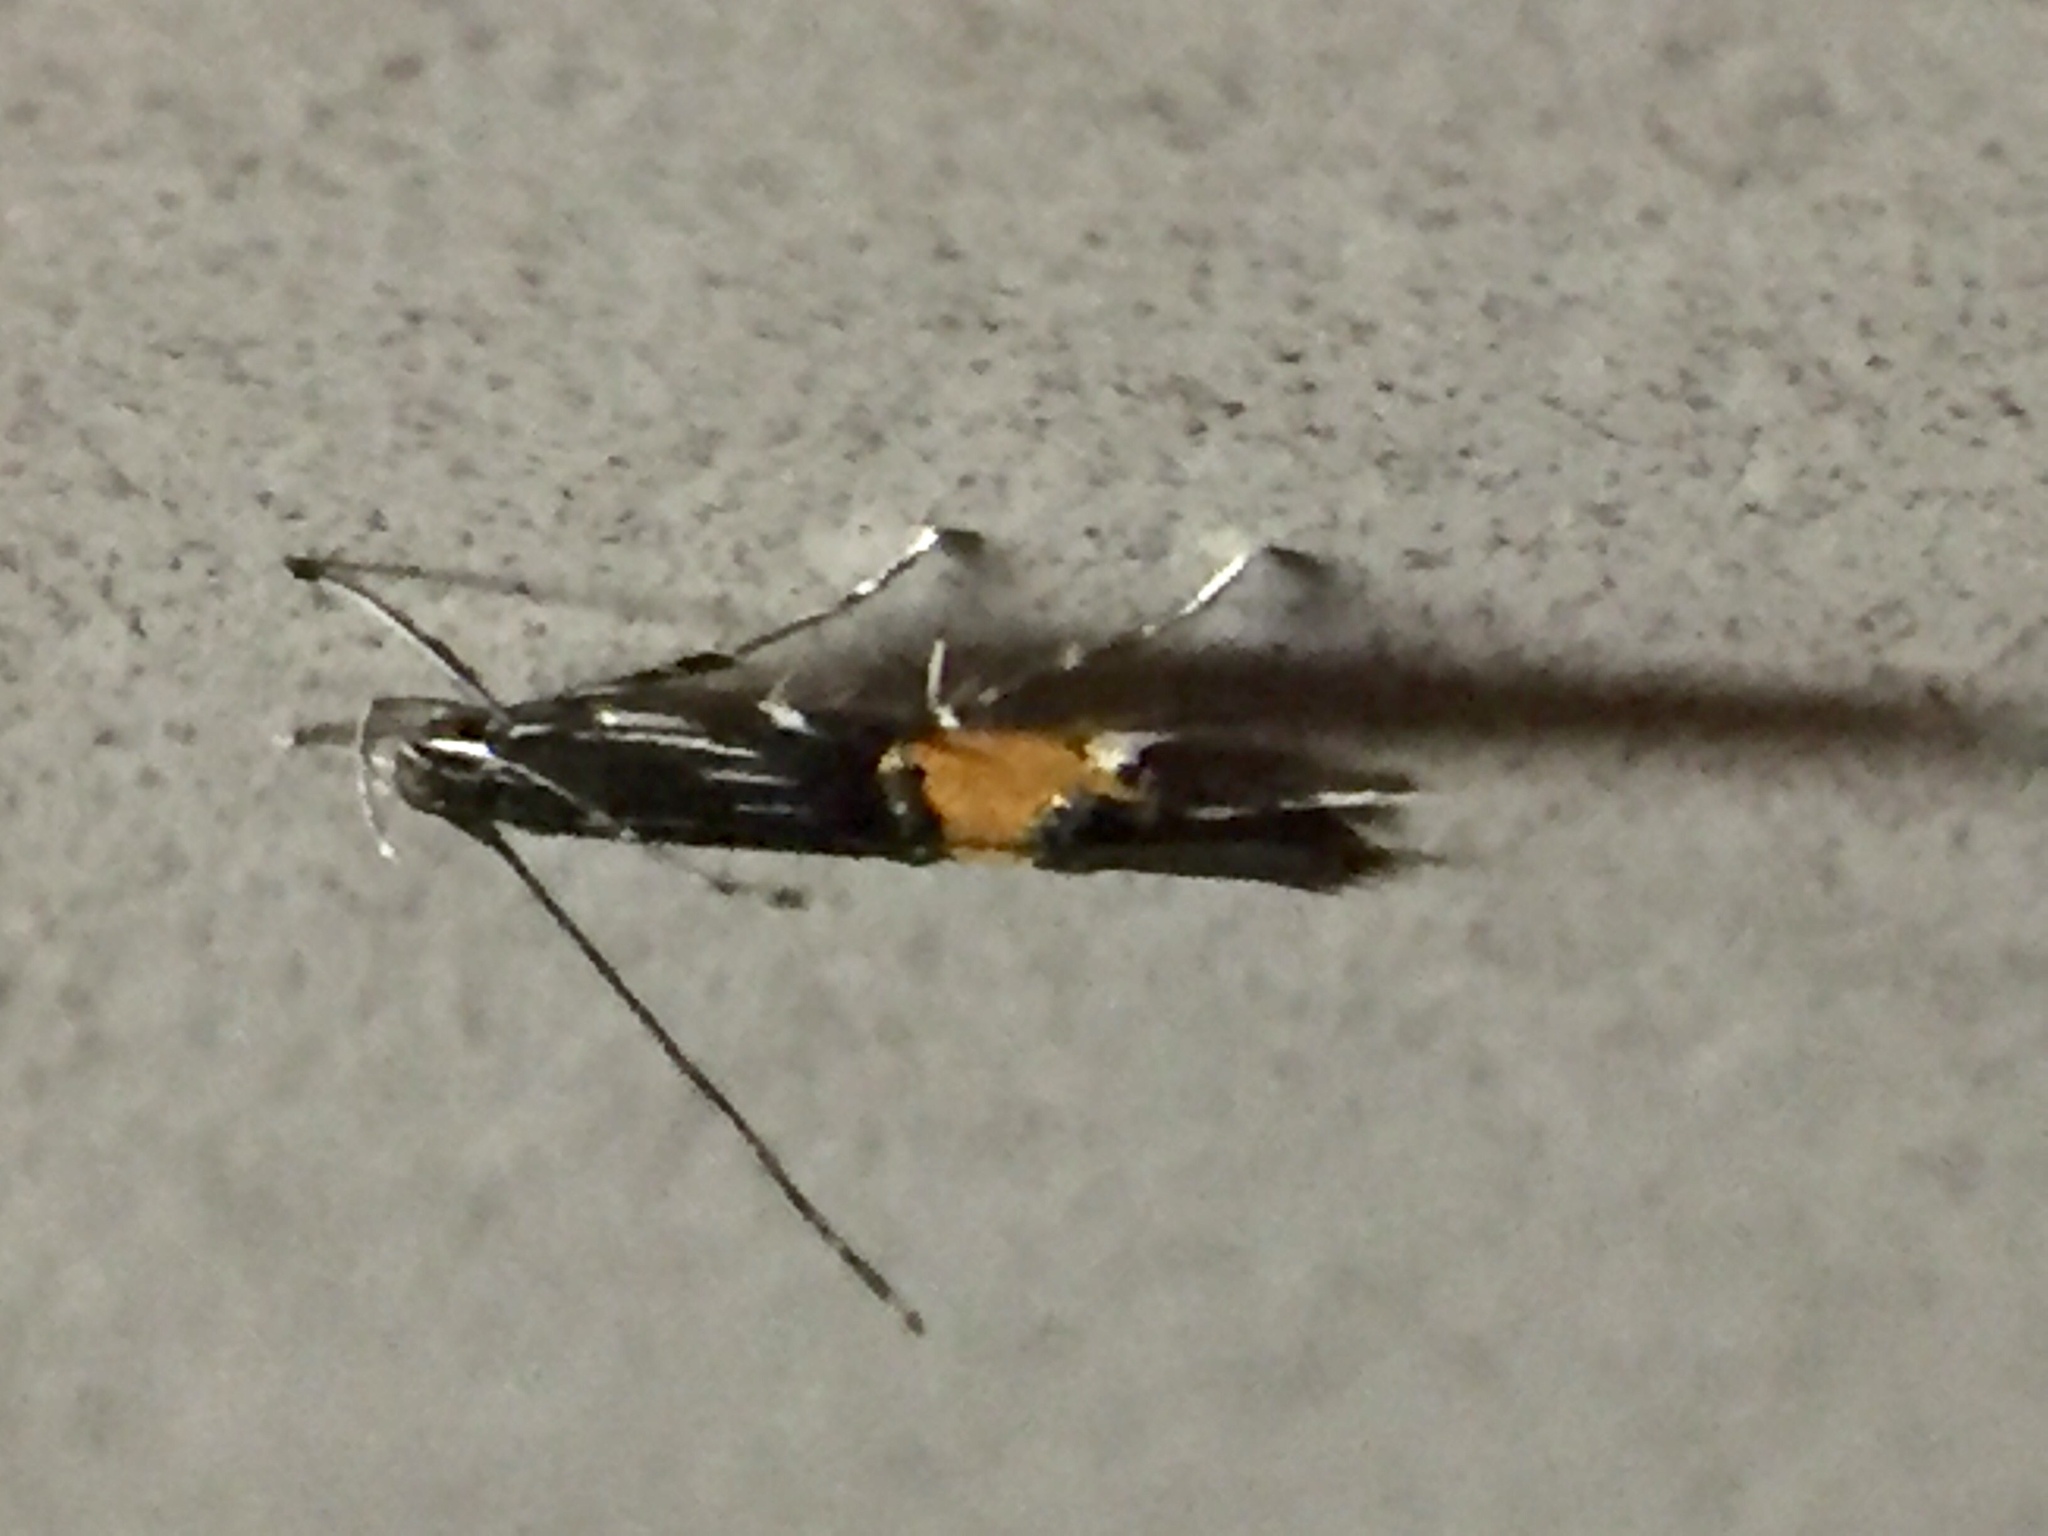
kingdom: Animalia
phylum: Arthropoda
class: Insecta
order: Lepidoptera
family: Cosmopterigidae
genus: Cosmopterix
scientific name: Cosmopterix attenuatella
